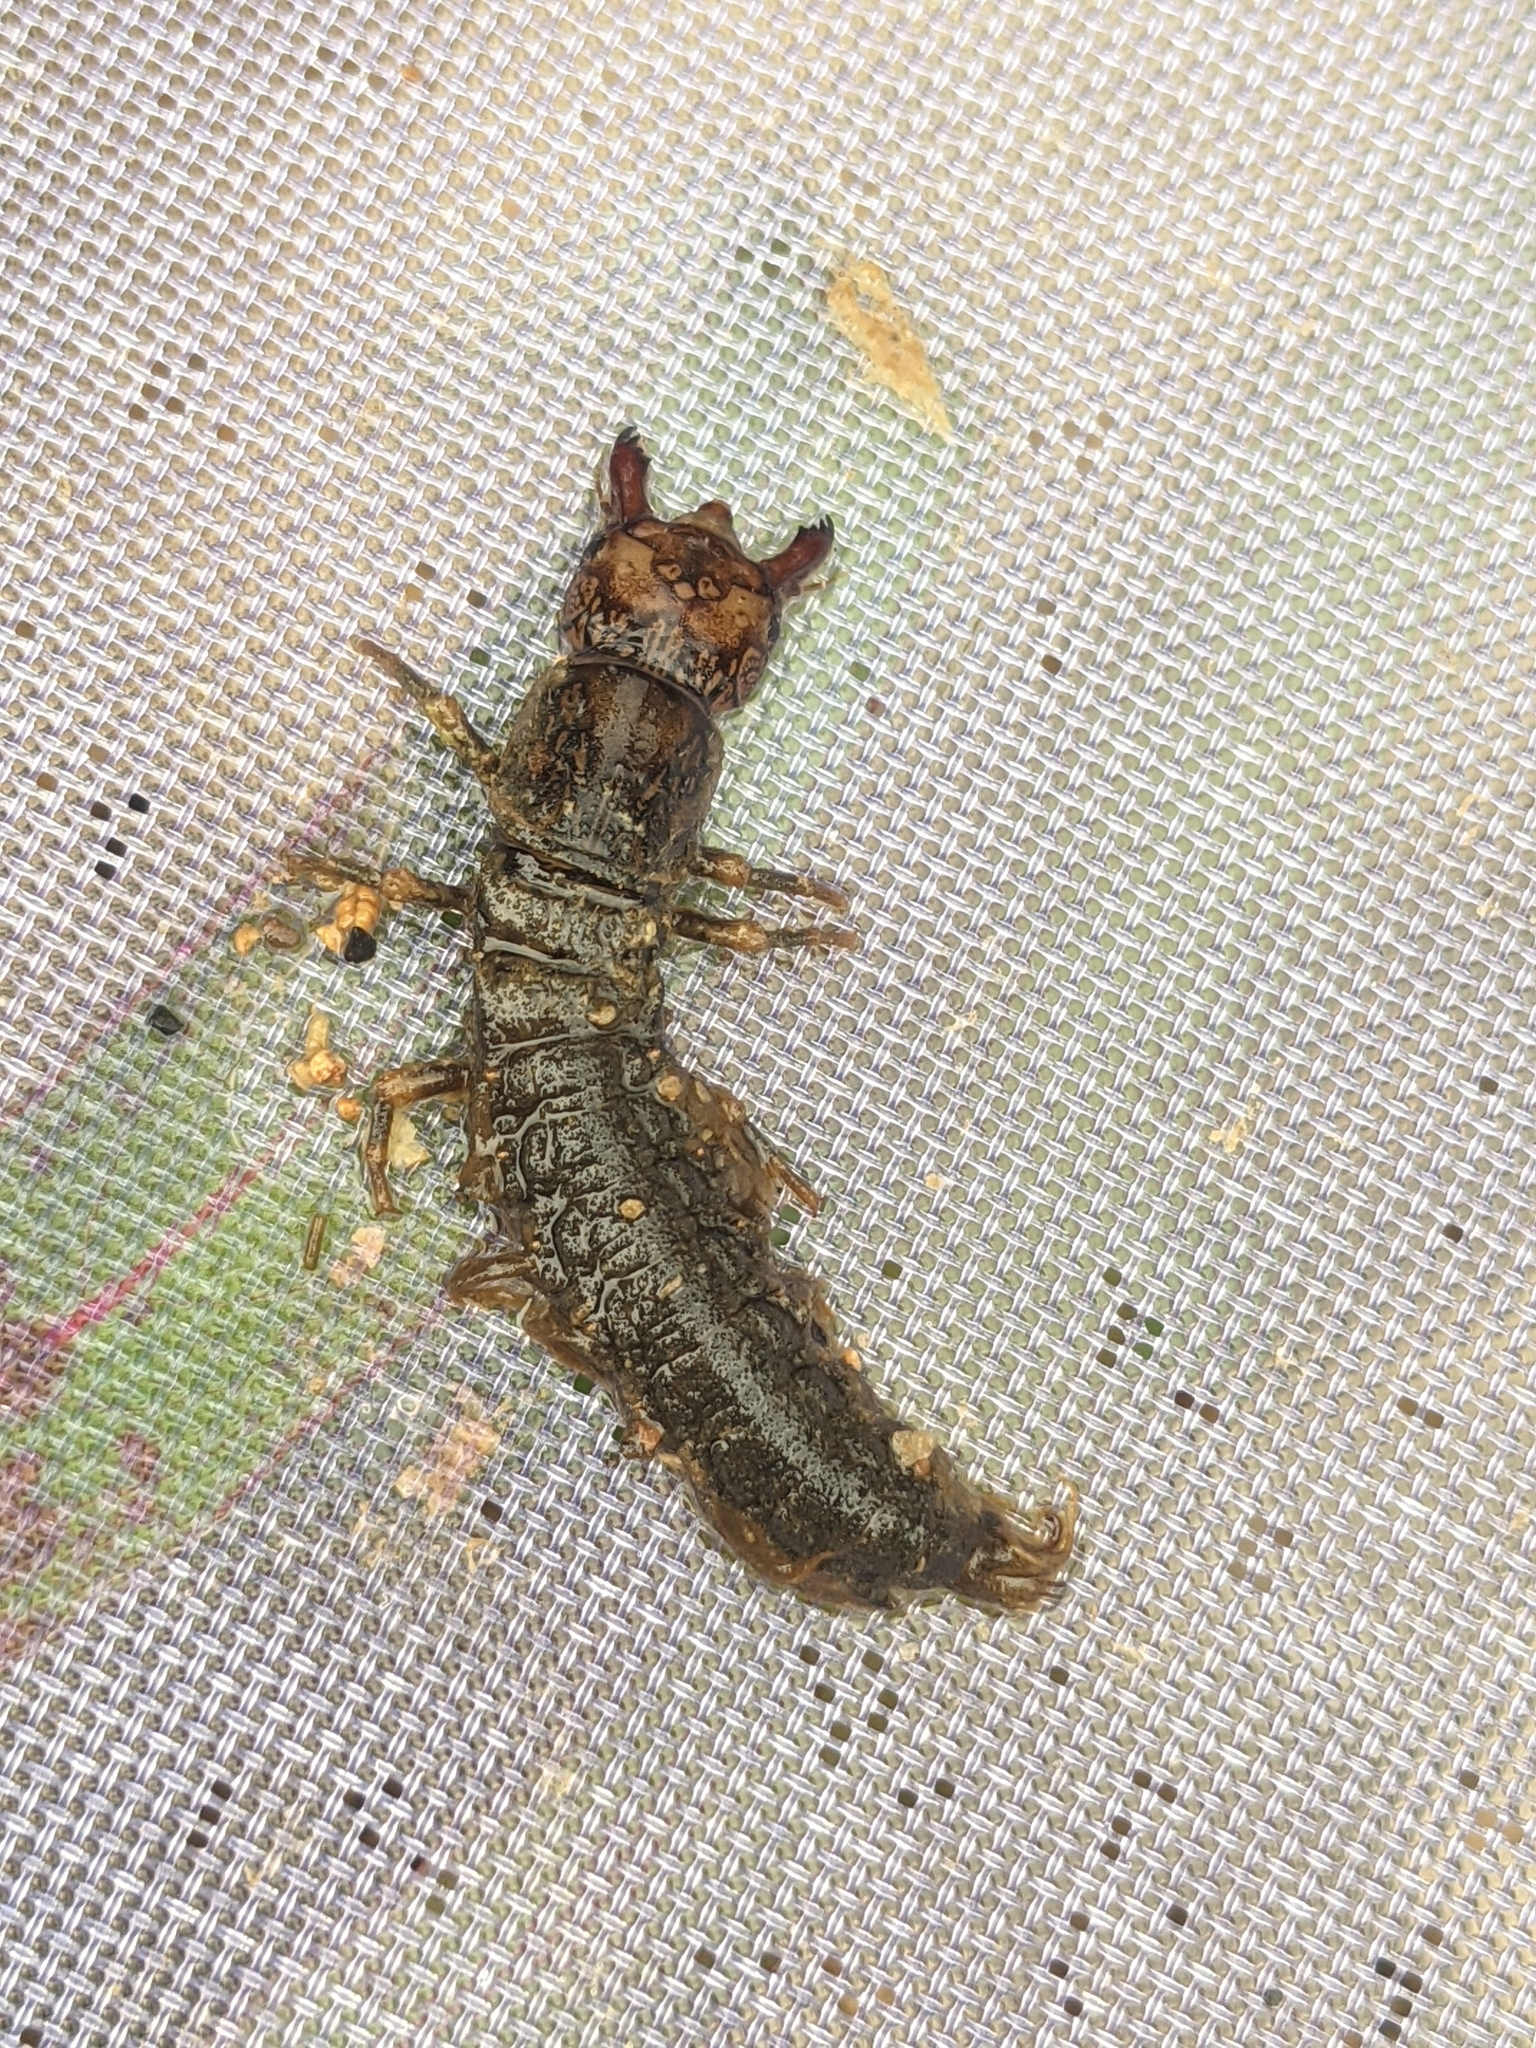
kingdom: Animalia
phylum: Arthropoda
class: Insecta
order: Megaloptera
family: Corydalidae
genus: Corydalus
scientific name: Corydalus cornutus
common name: Dobsonfly
